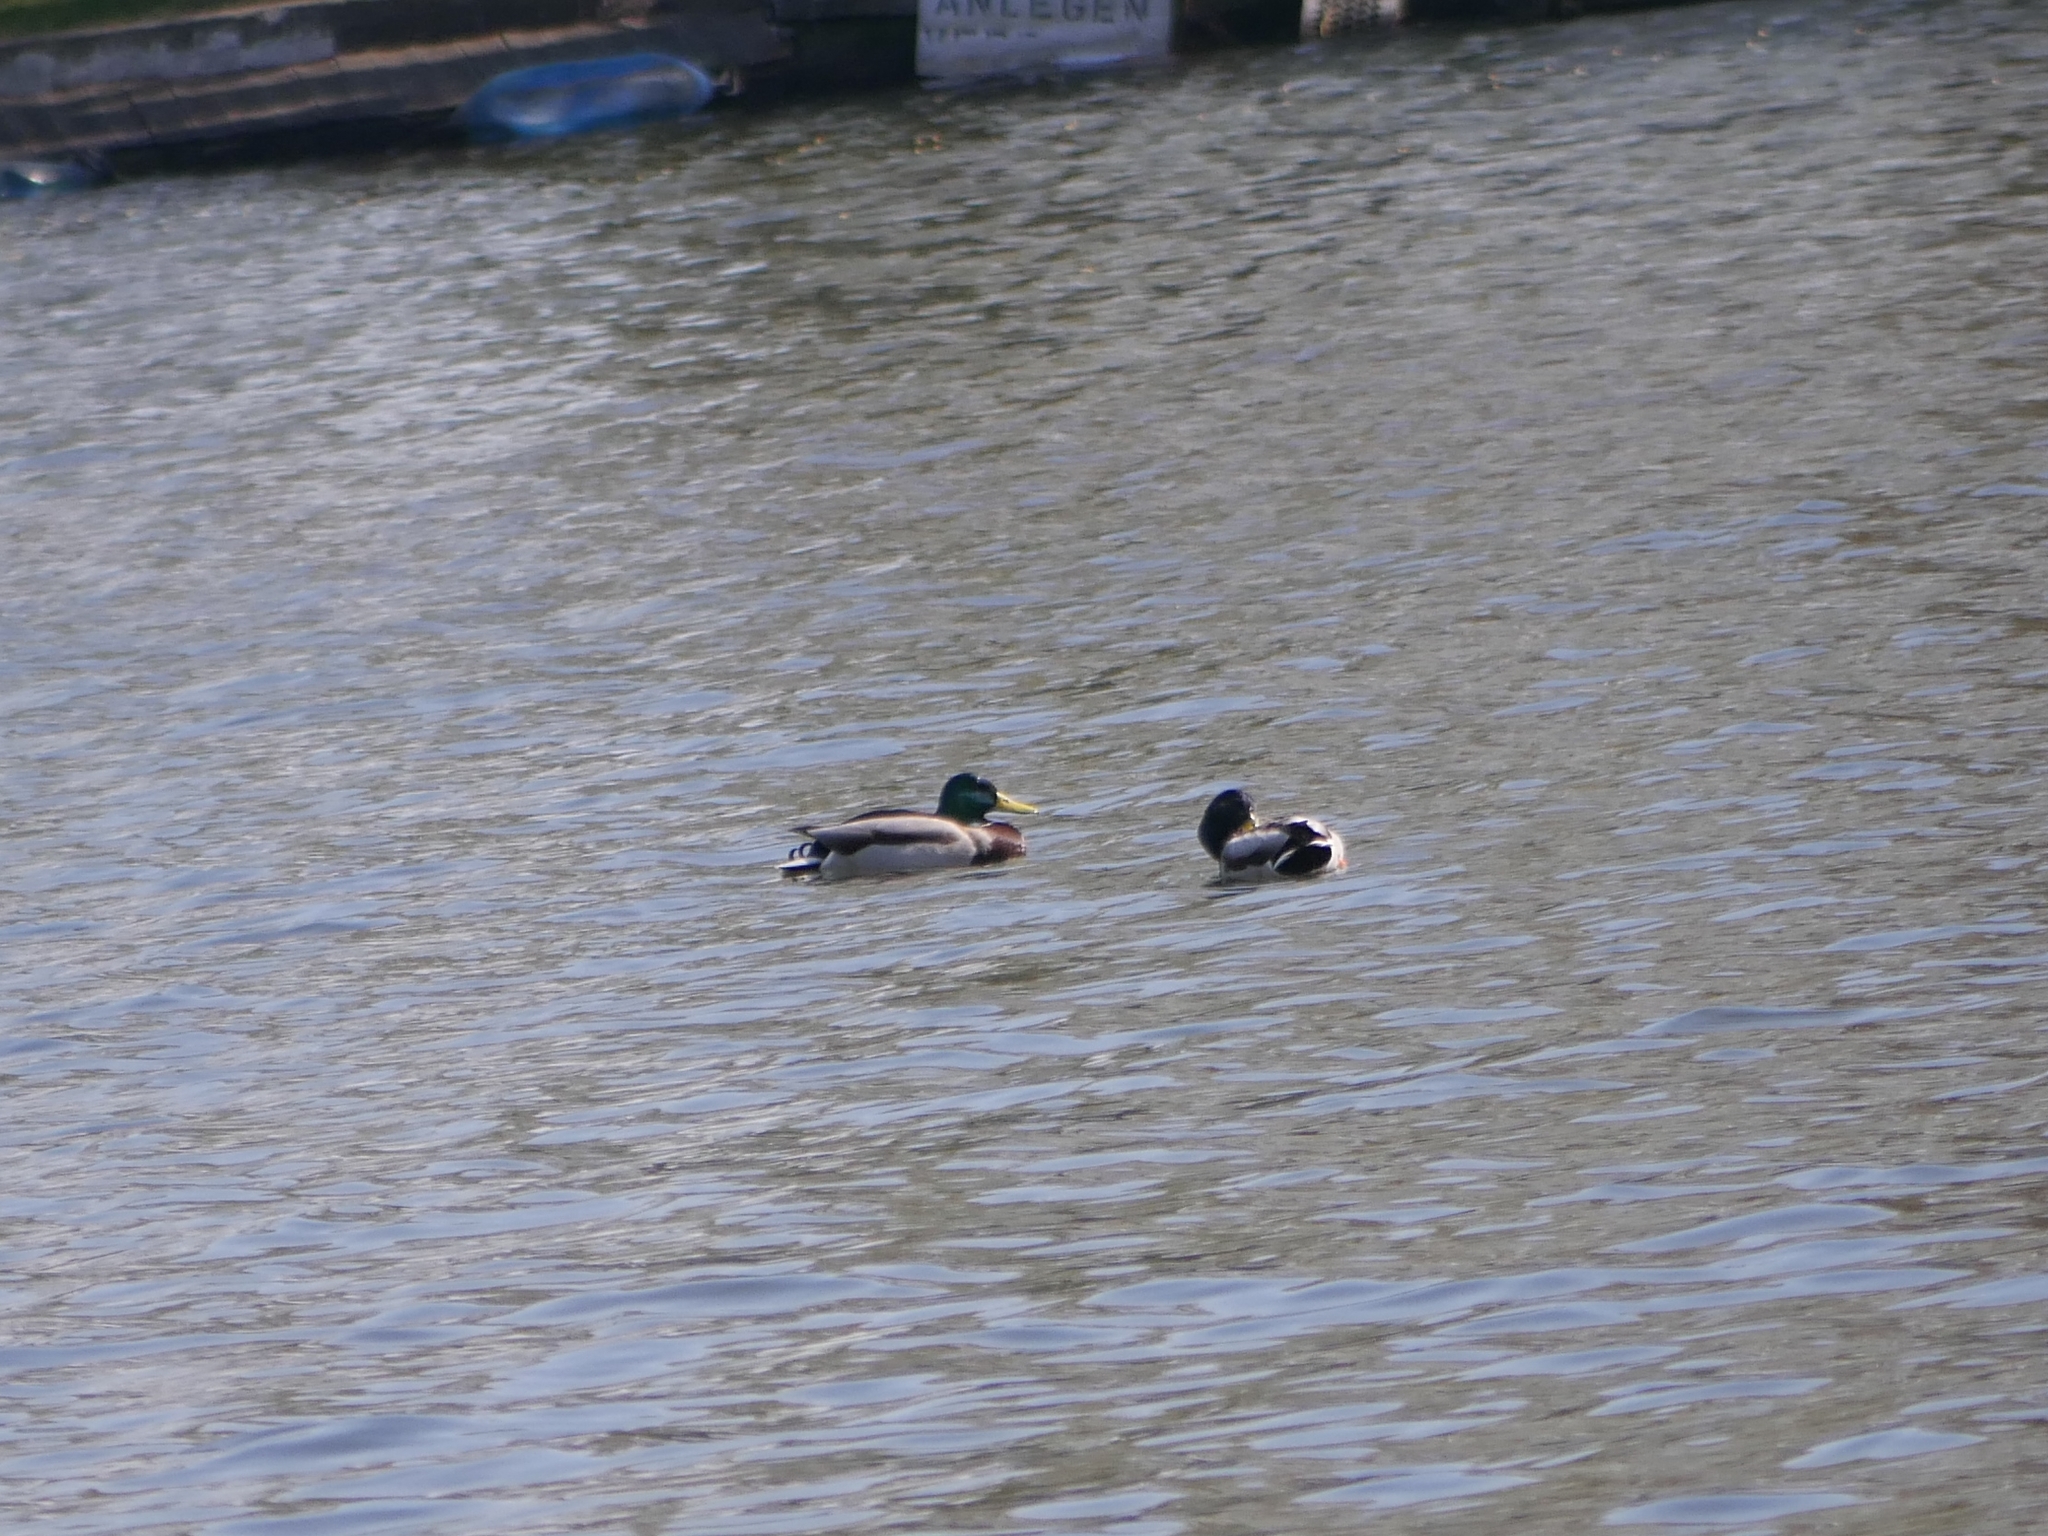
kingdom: Animalia
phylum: Chordata
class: Aves
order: Anseriformes
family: Anatidae
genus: Anas
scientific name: Anas platyrhynchos
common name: Mallard
